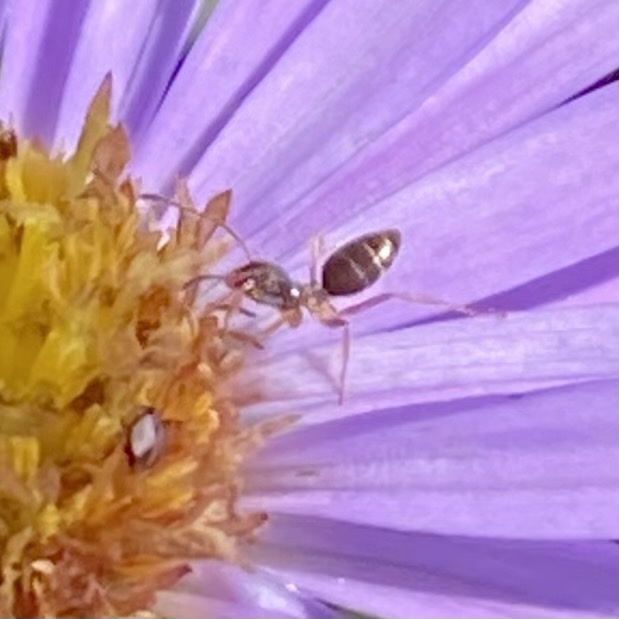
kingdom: Animalia
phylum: Arthropoda
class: Insecta
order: Hymenoptera
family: Formicidae
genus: Tapinoma
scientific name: Tapinoma sessile
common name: Odorous house ant
